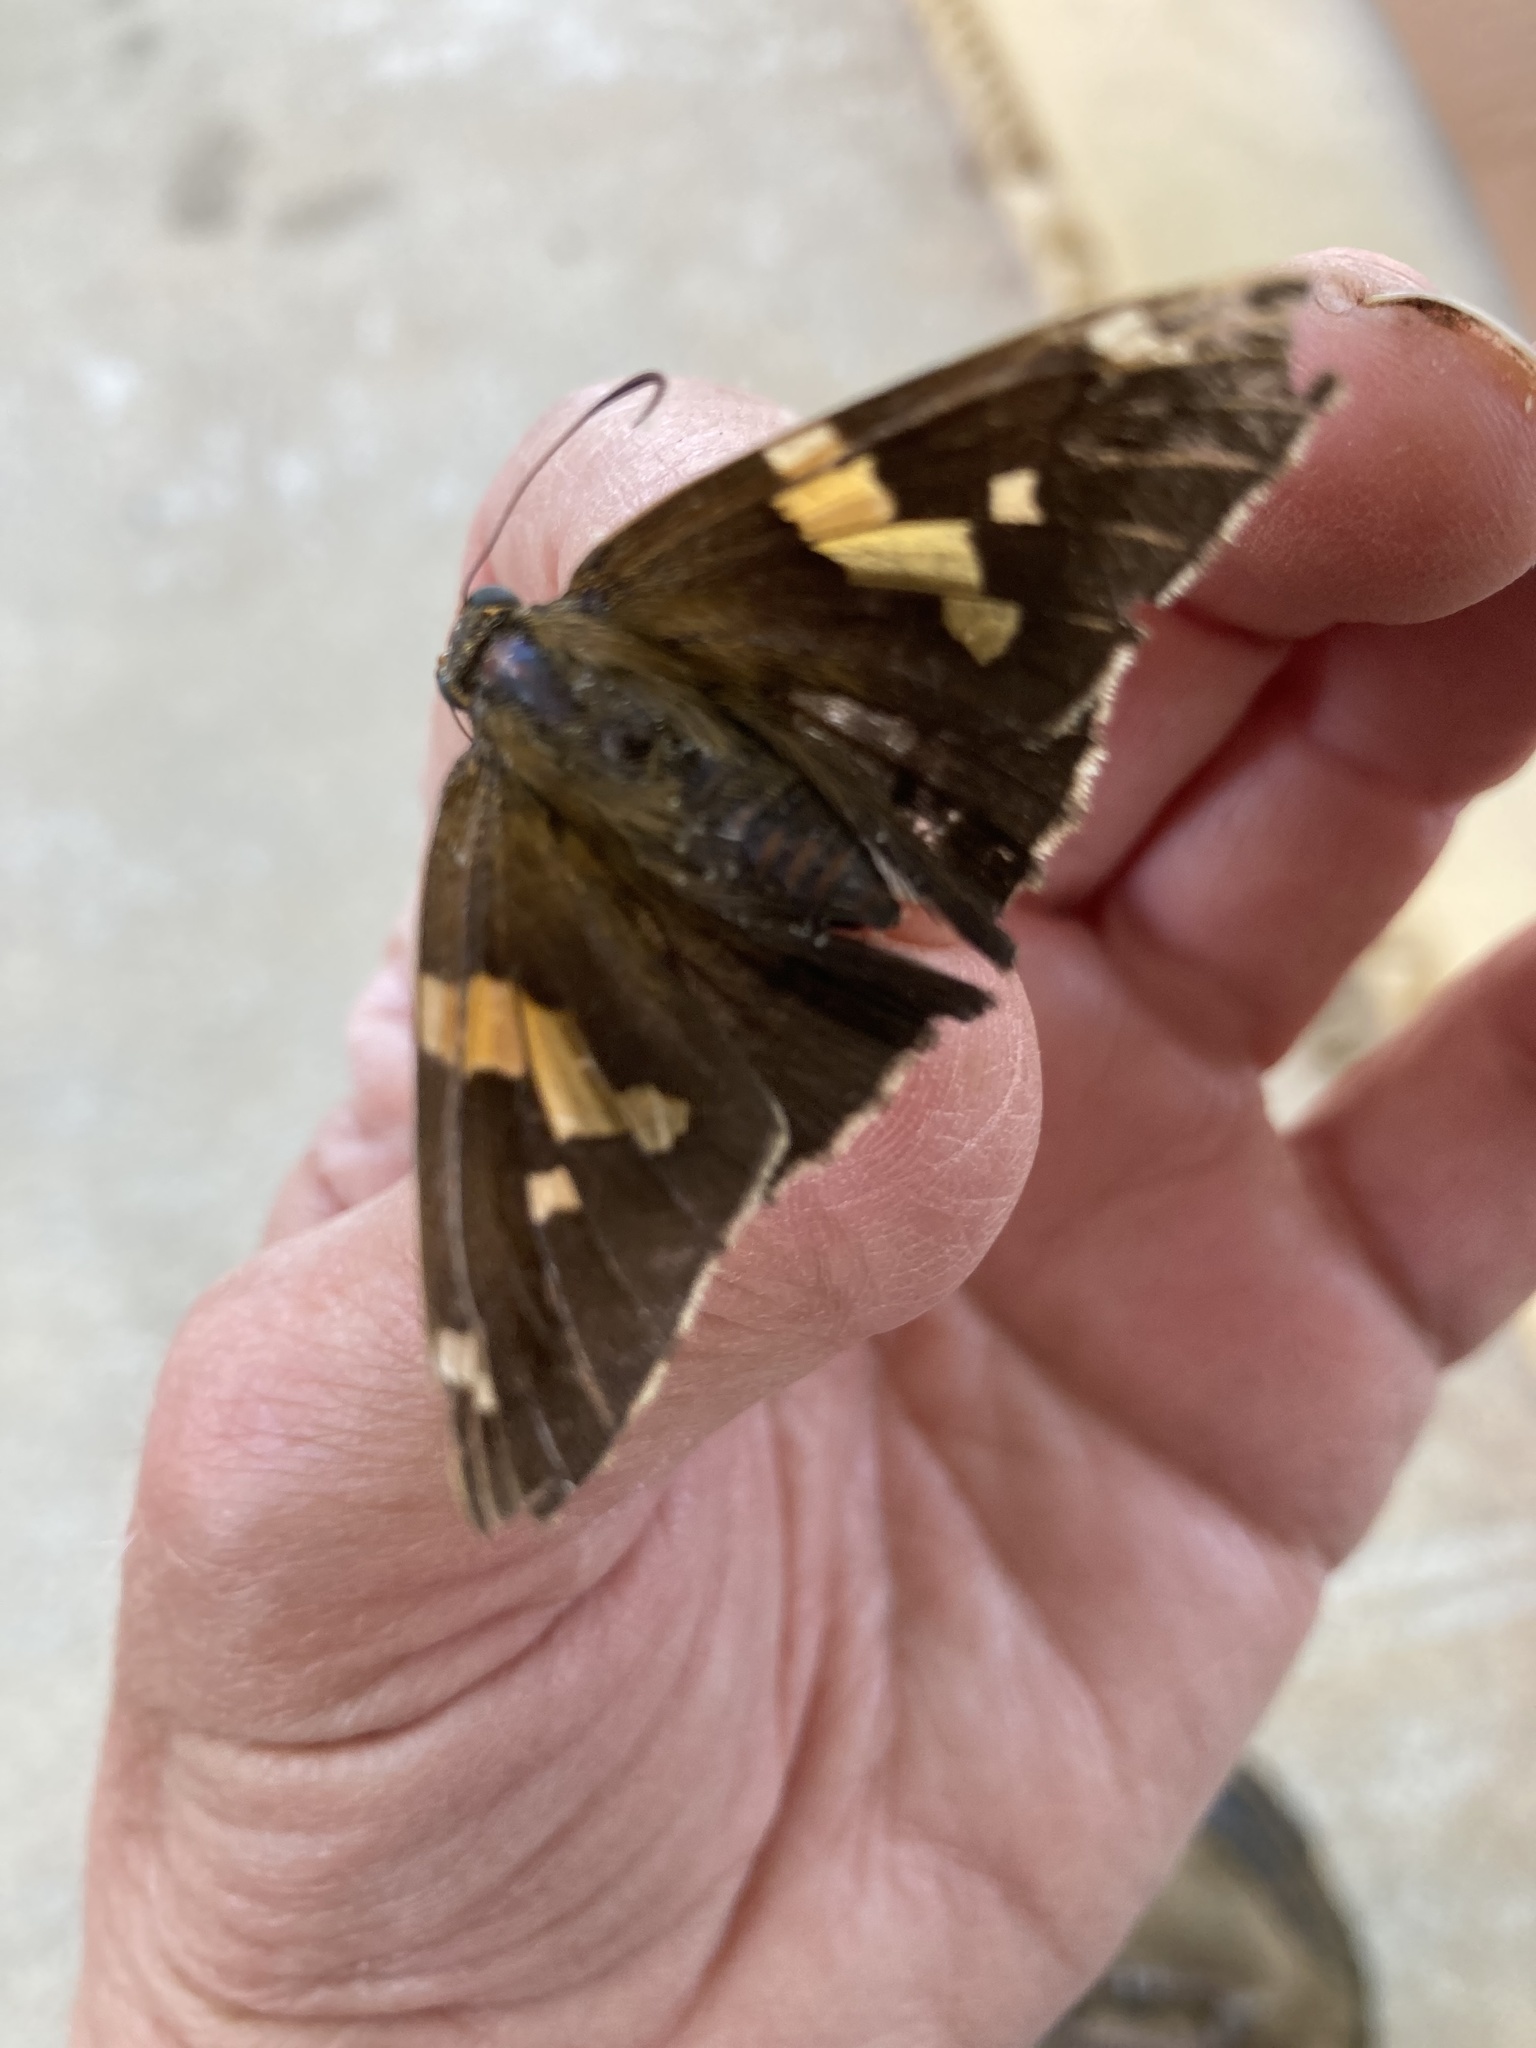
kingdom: Animalia
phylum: Arthropoda
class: Insecta
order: Lepidoptera
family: Hesperiidae
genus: Epargyreus
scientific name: Epargyreus clarus
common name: Silver-spotted skipper
